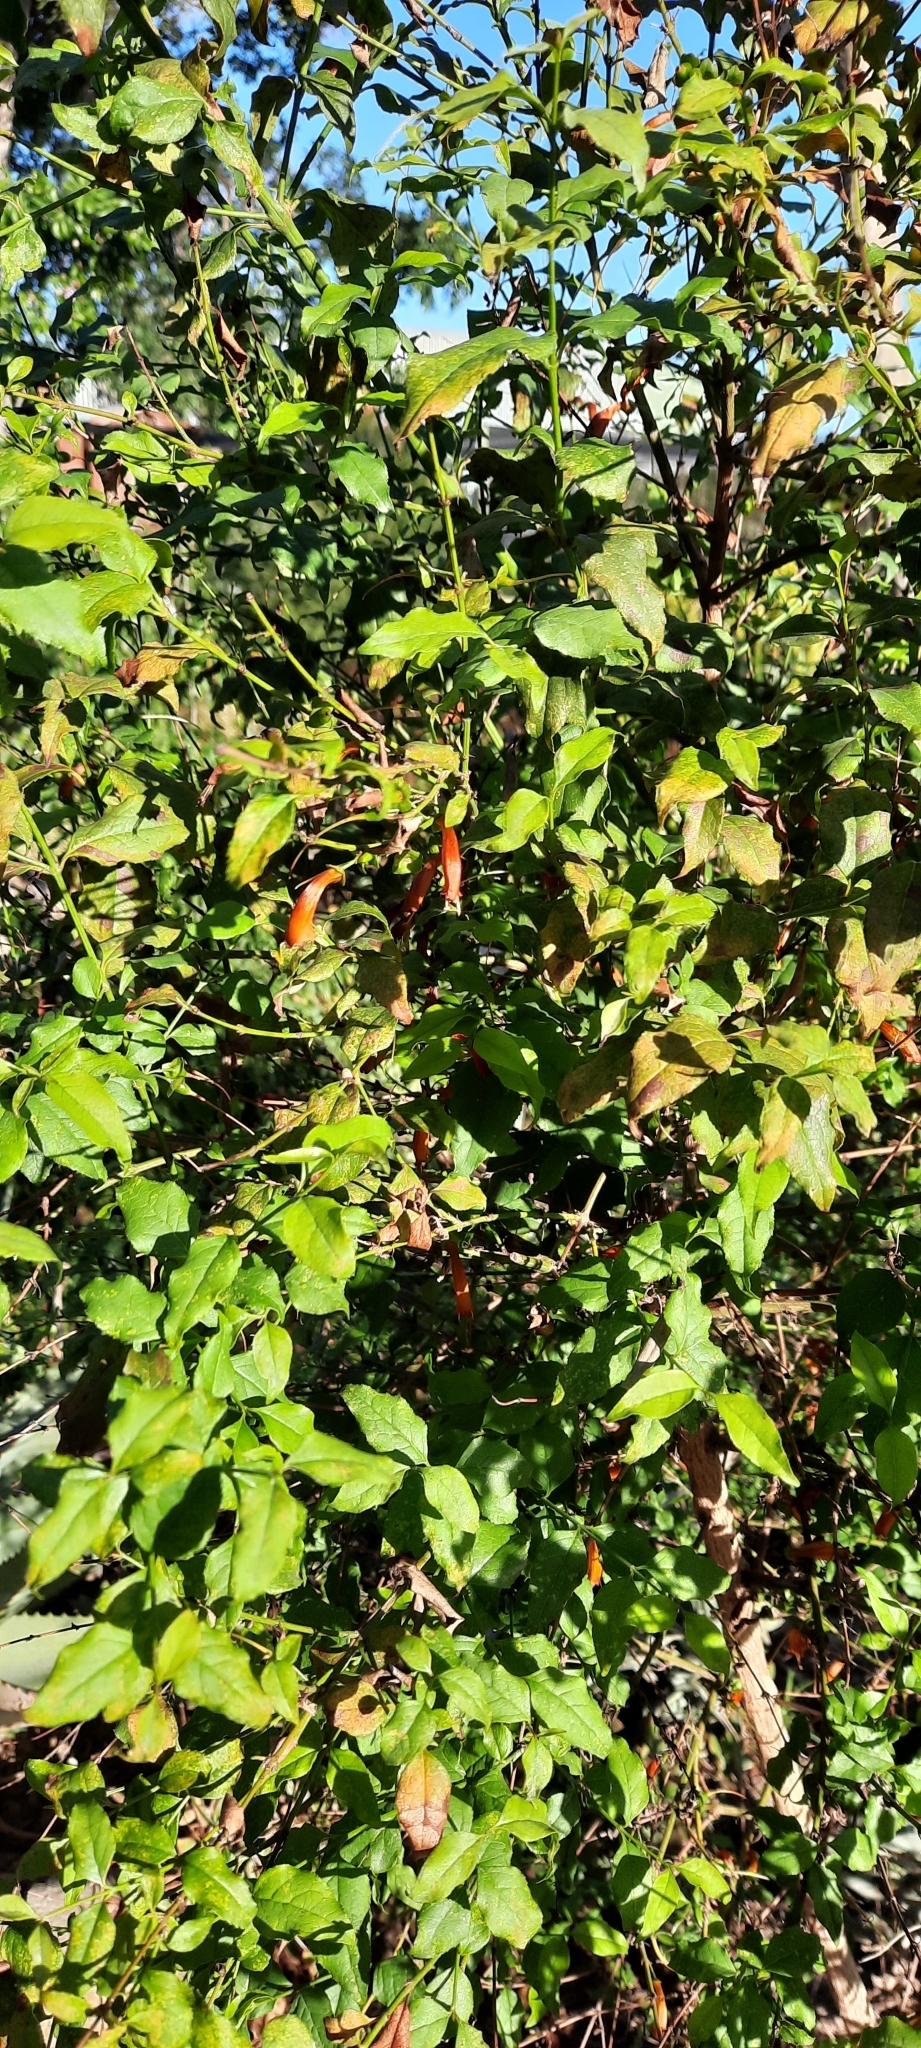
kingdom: Plantae
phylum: Tracheophyta
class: Magnoliopsida
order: Lamiales
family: Stilbaceae
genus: Halleria
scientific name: Halleria lucida
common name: Tree fuschia
